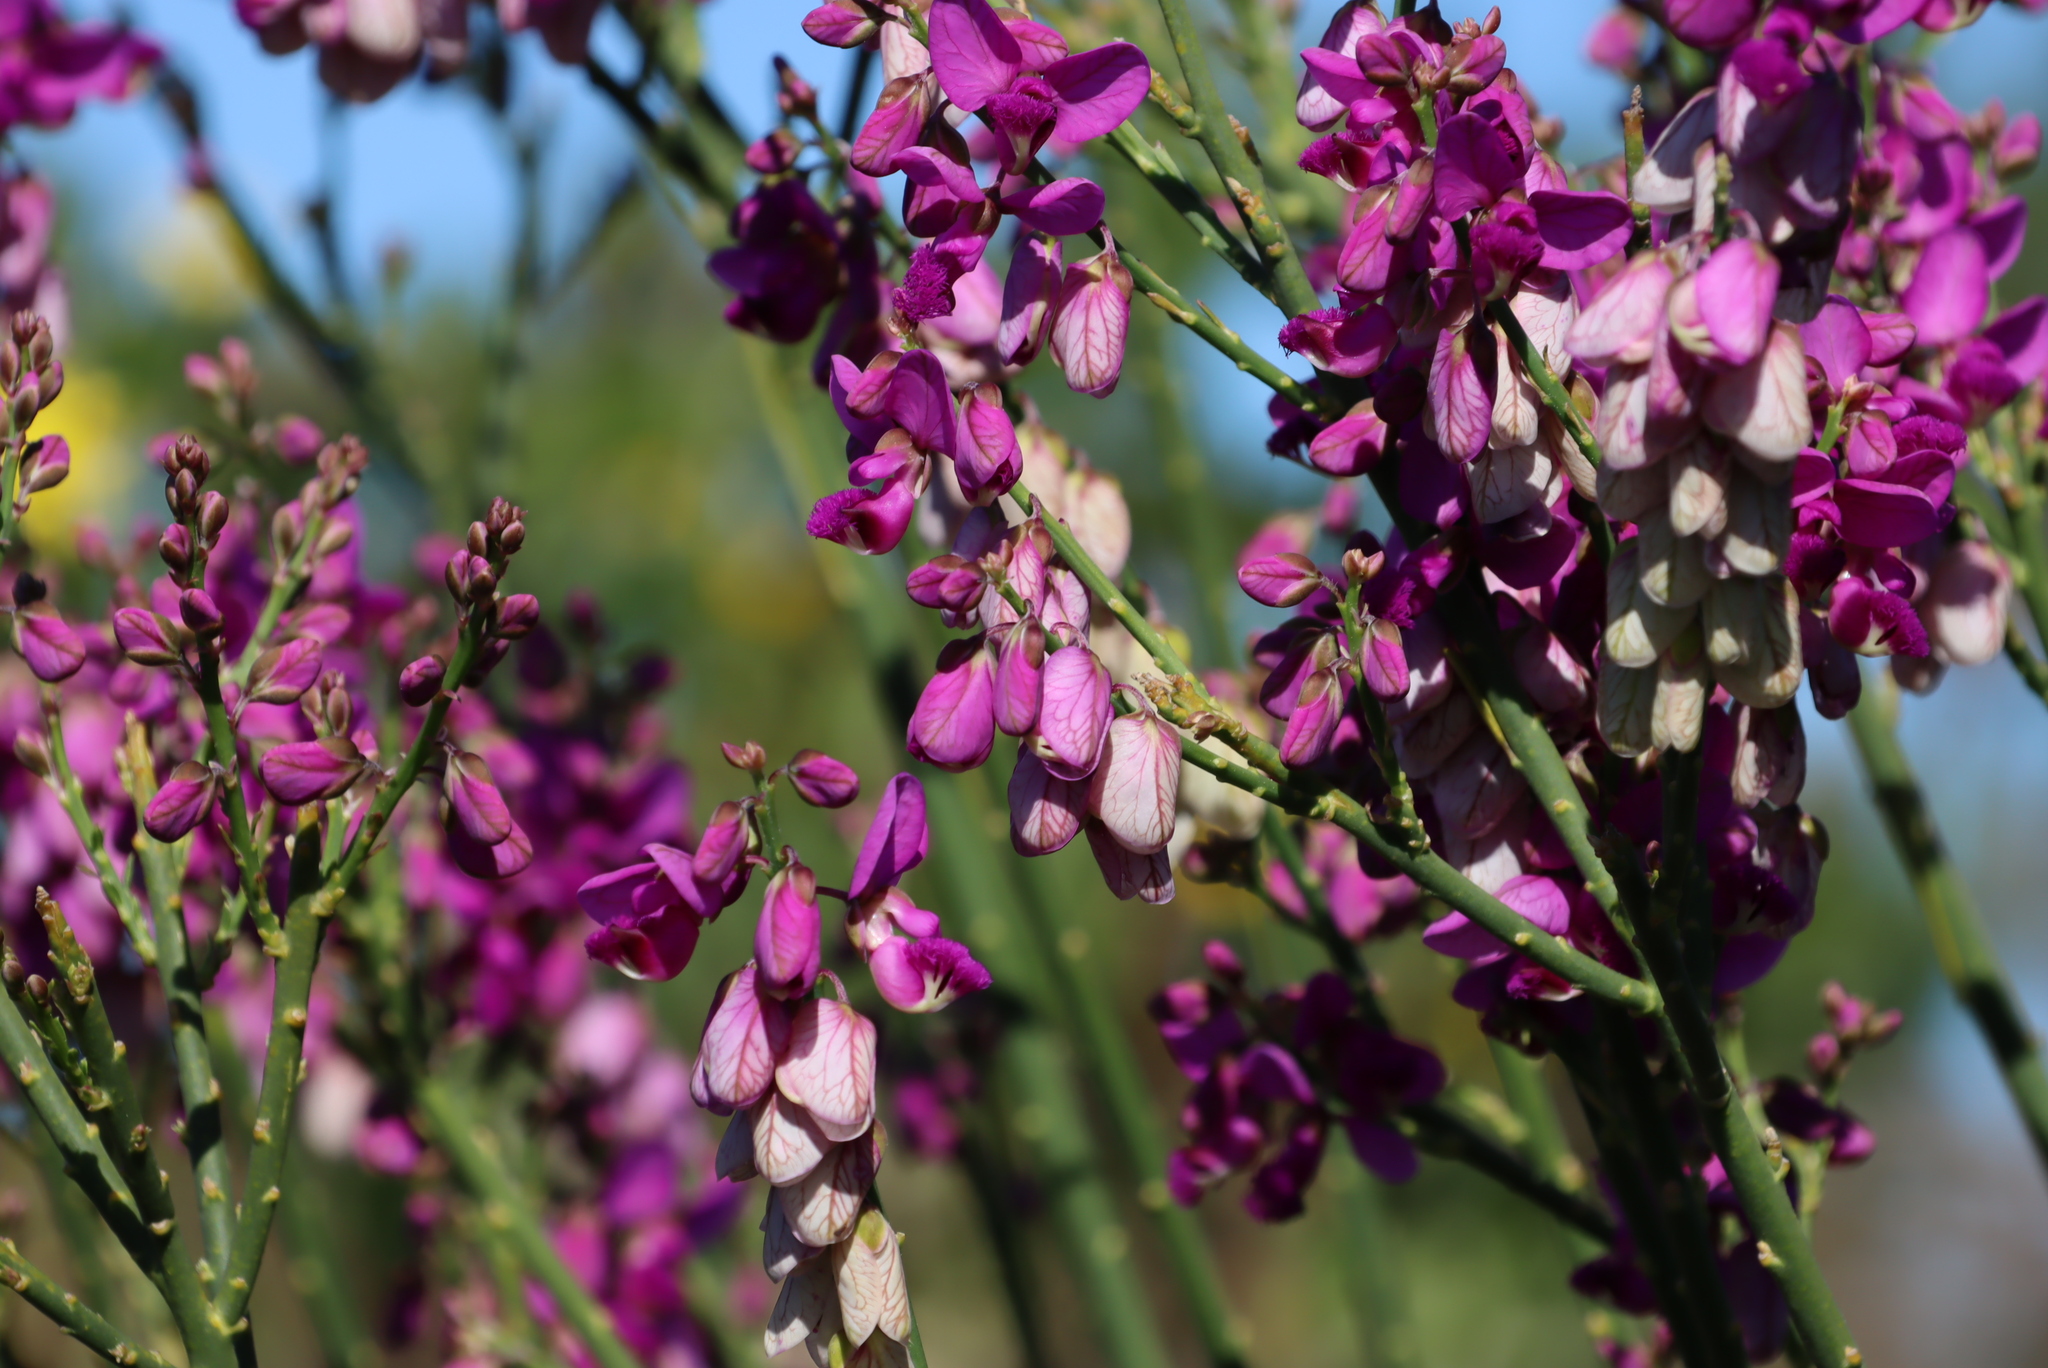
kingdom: Plantae
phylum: Tracheophyta
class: Magnoliopsida
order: Fabales
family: Polygalaceae
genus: Polygala
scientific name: Polygala virgata
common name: Milkwort
